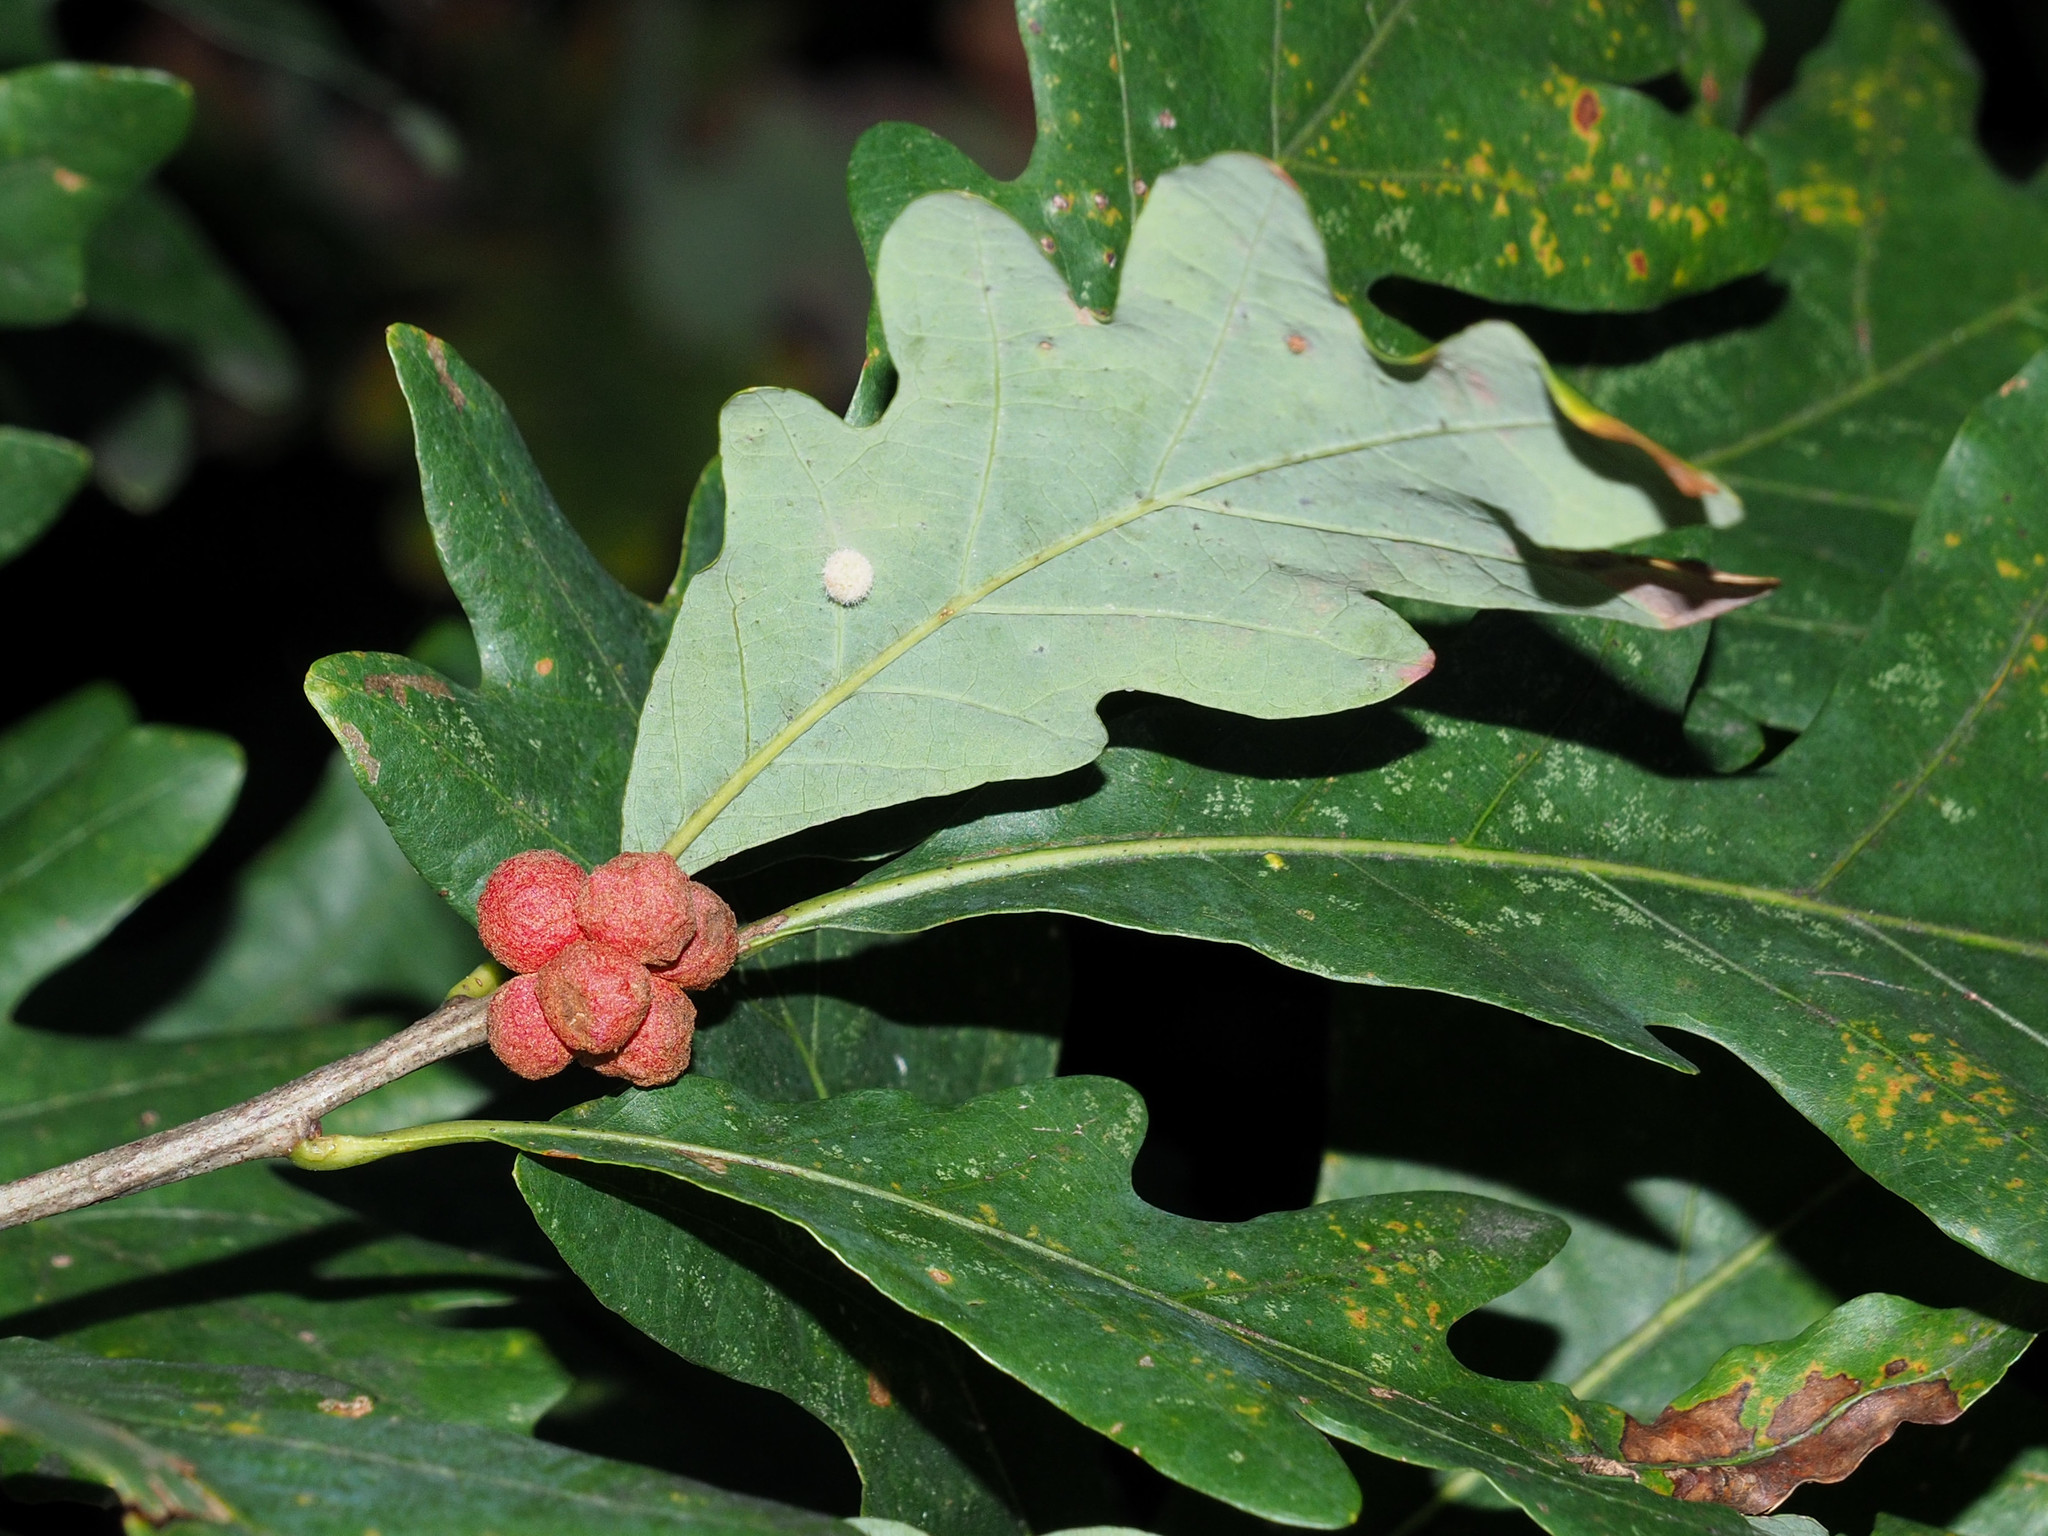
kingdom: Animalia
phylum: Arthropoda
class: Insecta
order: Hymenoptera
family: Cynipidae
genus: Andricus
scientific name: Andricus
